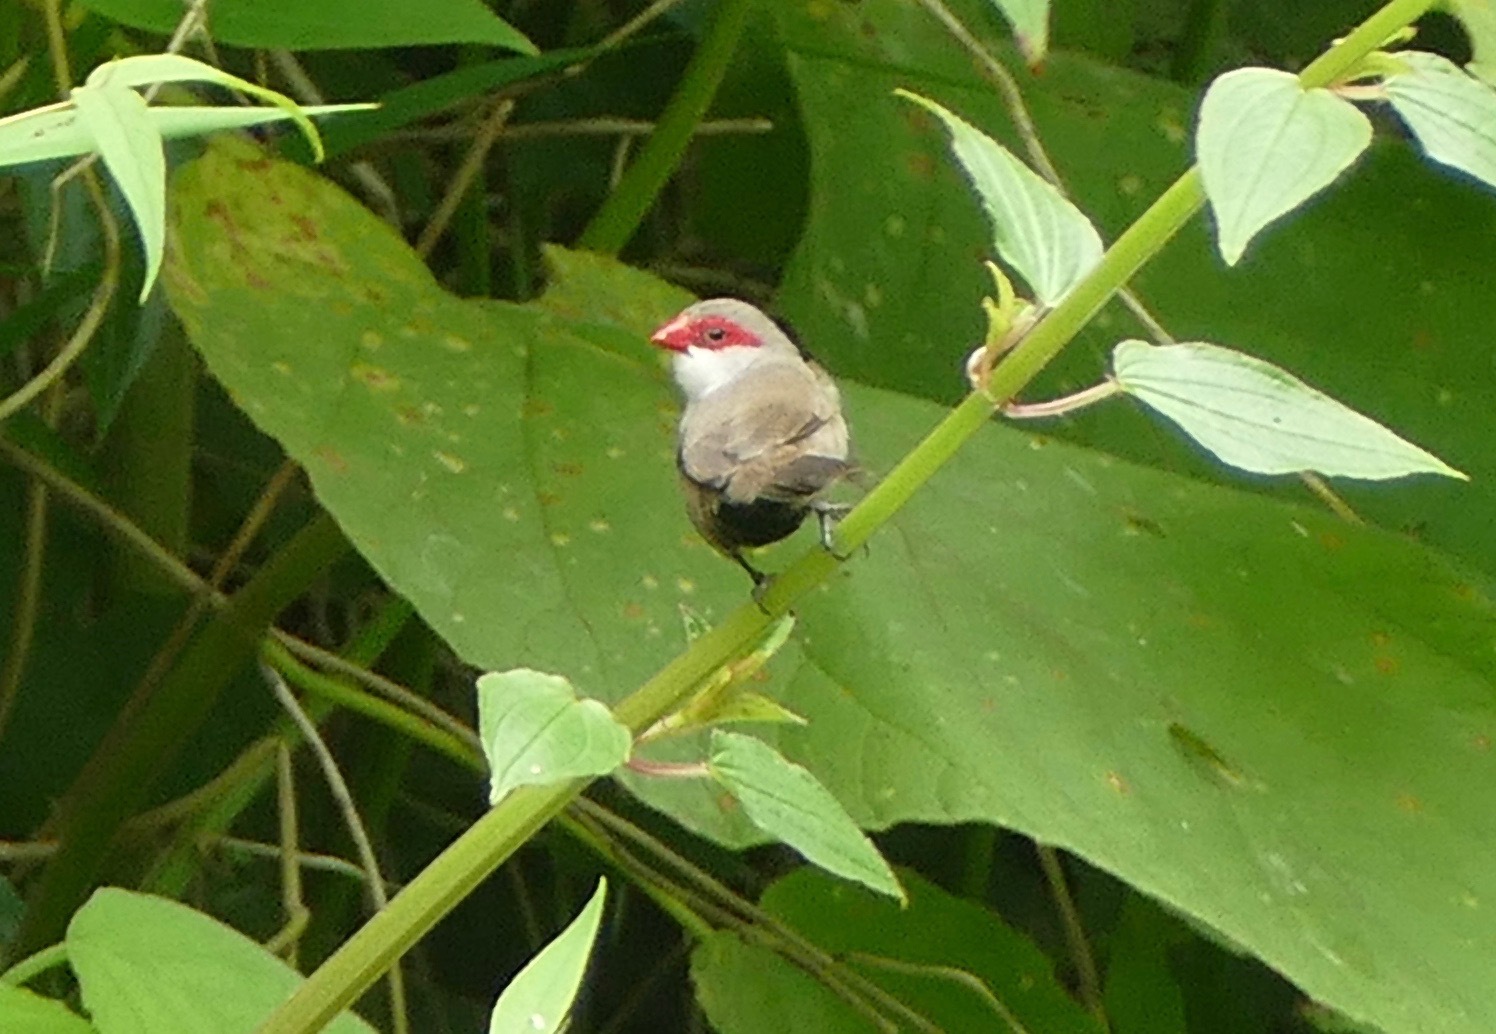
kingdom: Animalia
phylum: Chordata
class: Aves
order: Passeriformes
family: Estrildidae
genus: Estrilda
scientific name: Estrilda astrild
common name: Common waxbill
